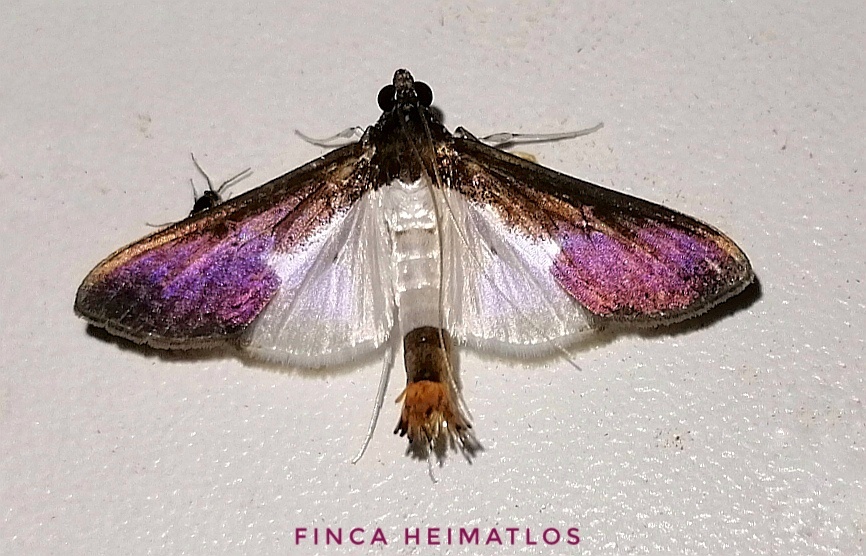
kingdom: Animalia
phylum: Arthropoda
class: Insecta
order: Lepidoptera
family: Crambidae
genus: Diaphania
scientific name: Diaphania yurakyana
